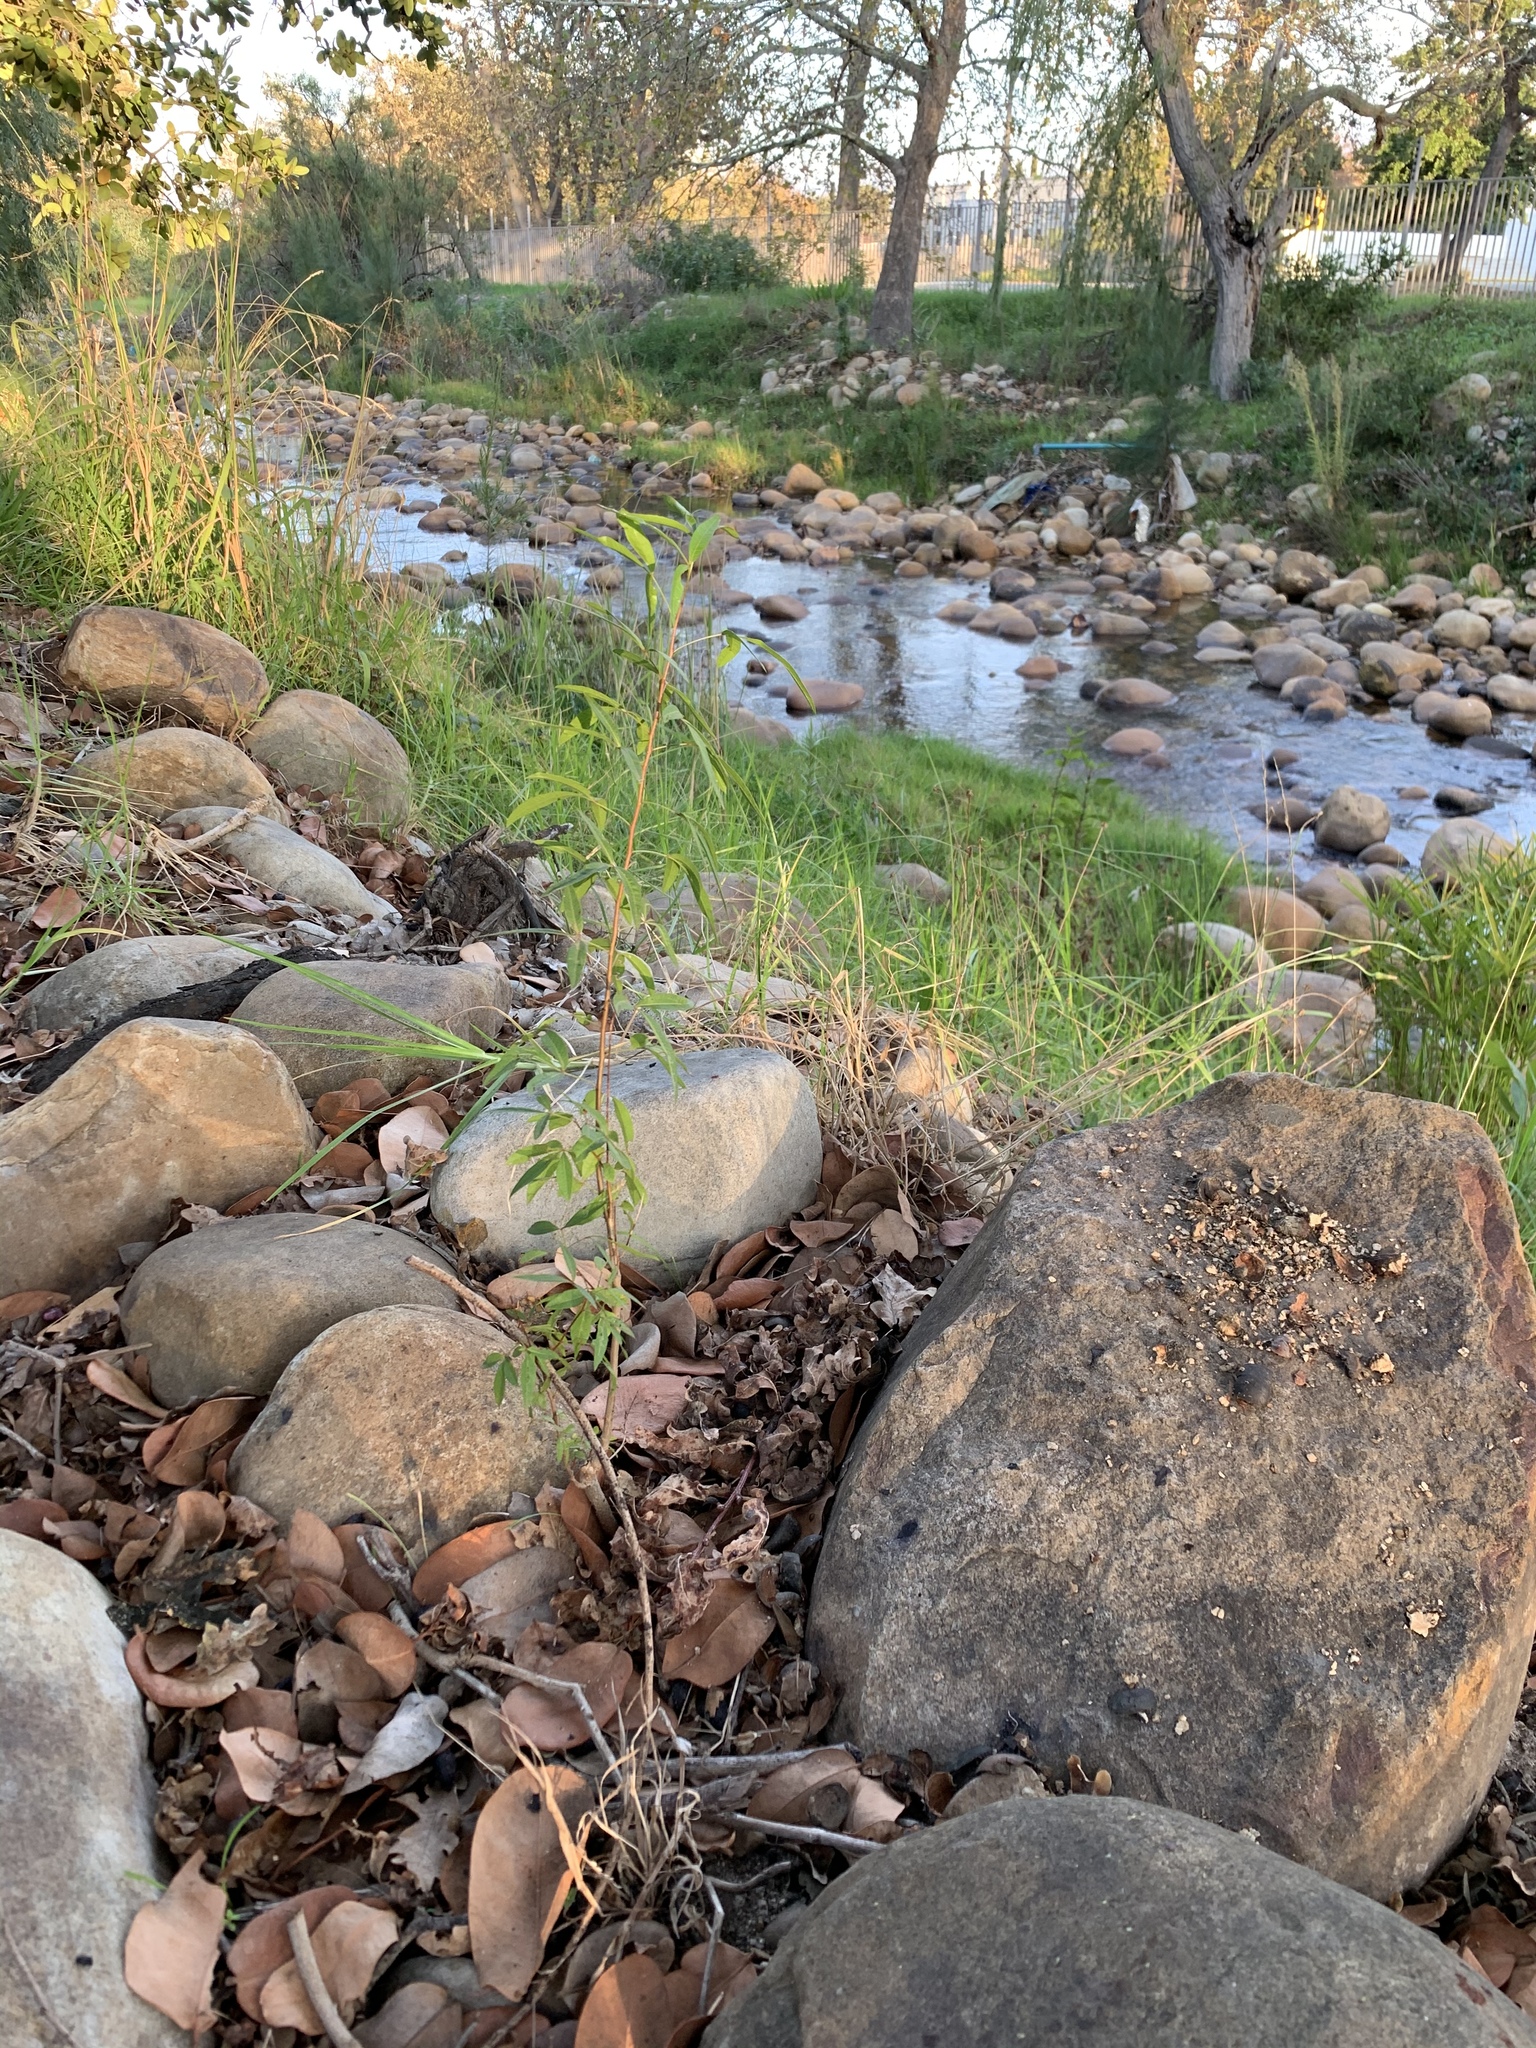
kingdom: Plantae
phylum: Tracheophyta
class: Magnoliopsida
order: Sapindales
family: Anacardiaceae
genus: Searsia
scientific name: Searsia pendulina
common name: White karee
